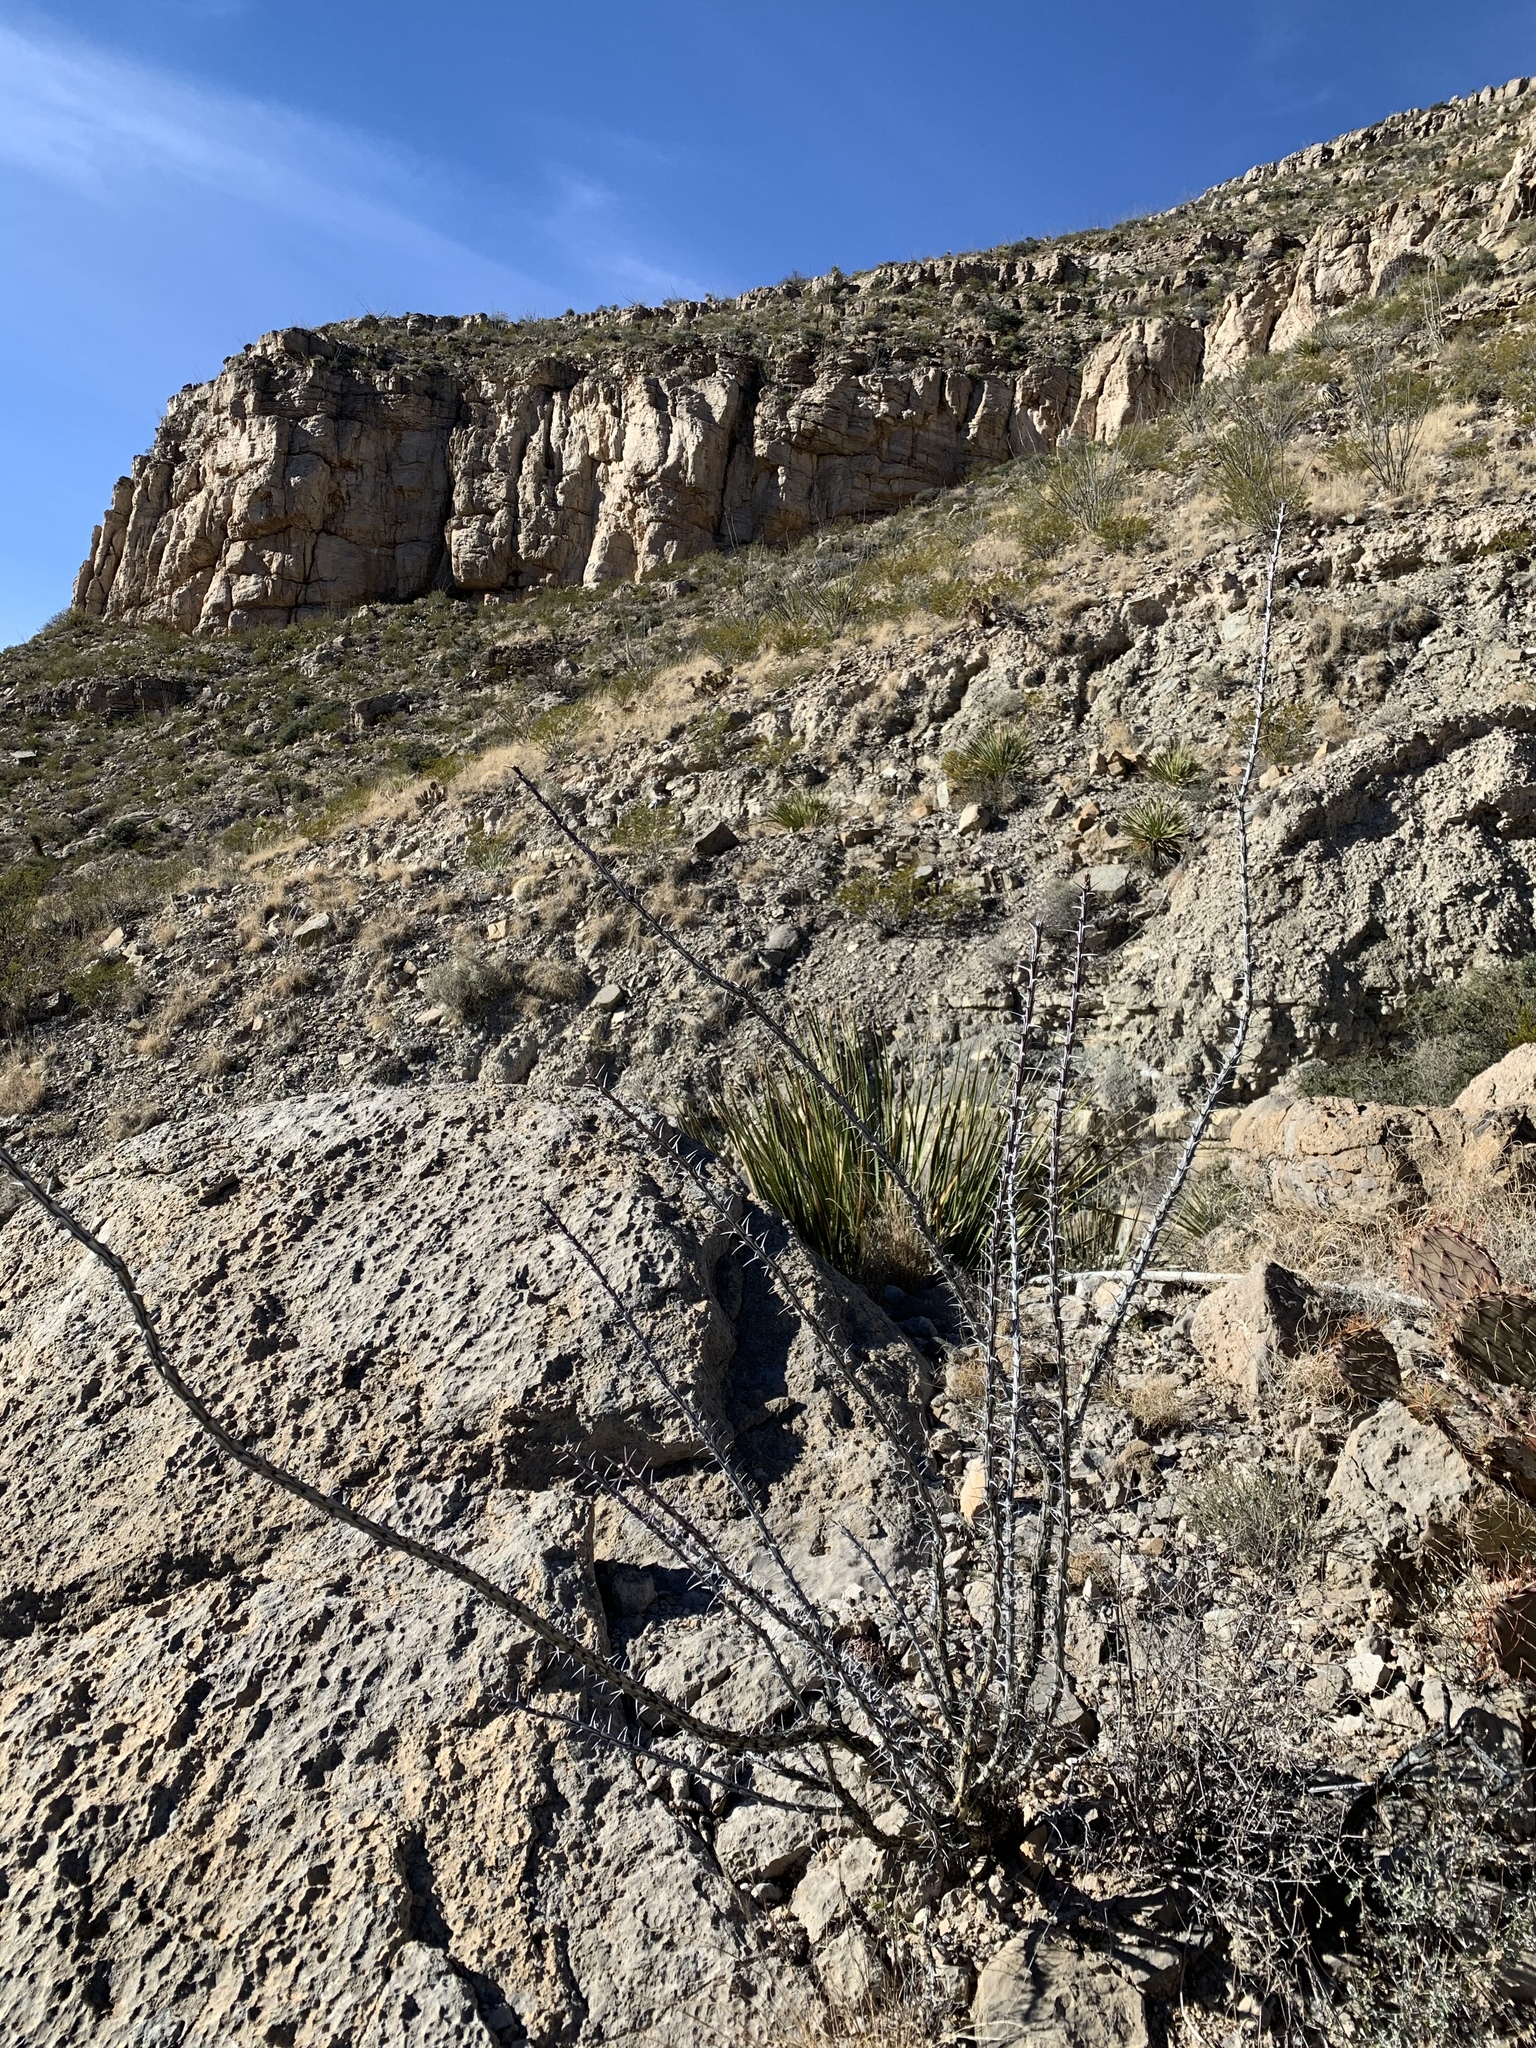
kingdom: Plantae
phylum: Tracheophyta
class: Magnoliopsida
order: Ericales
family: Fouquieriaceae
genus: Fouquieria
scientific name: Fouquieria splendens
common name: Vine-cactus
